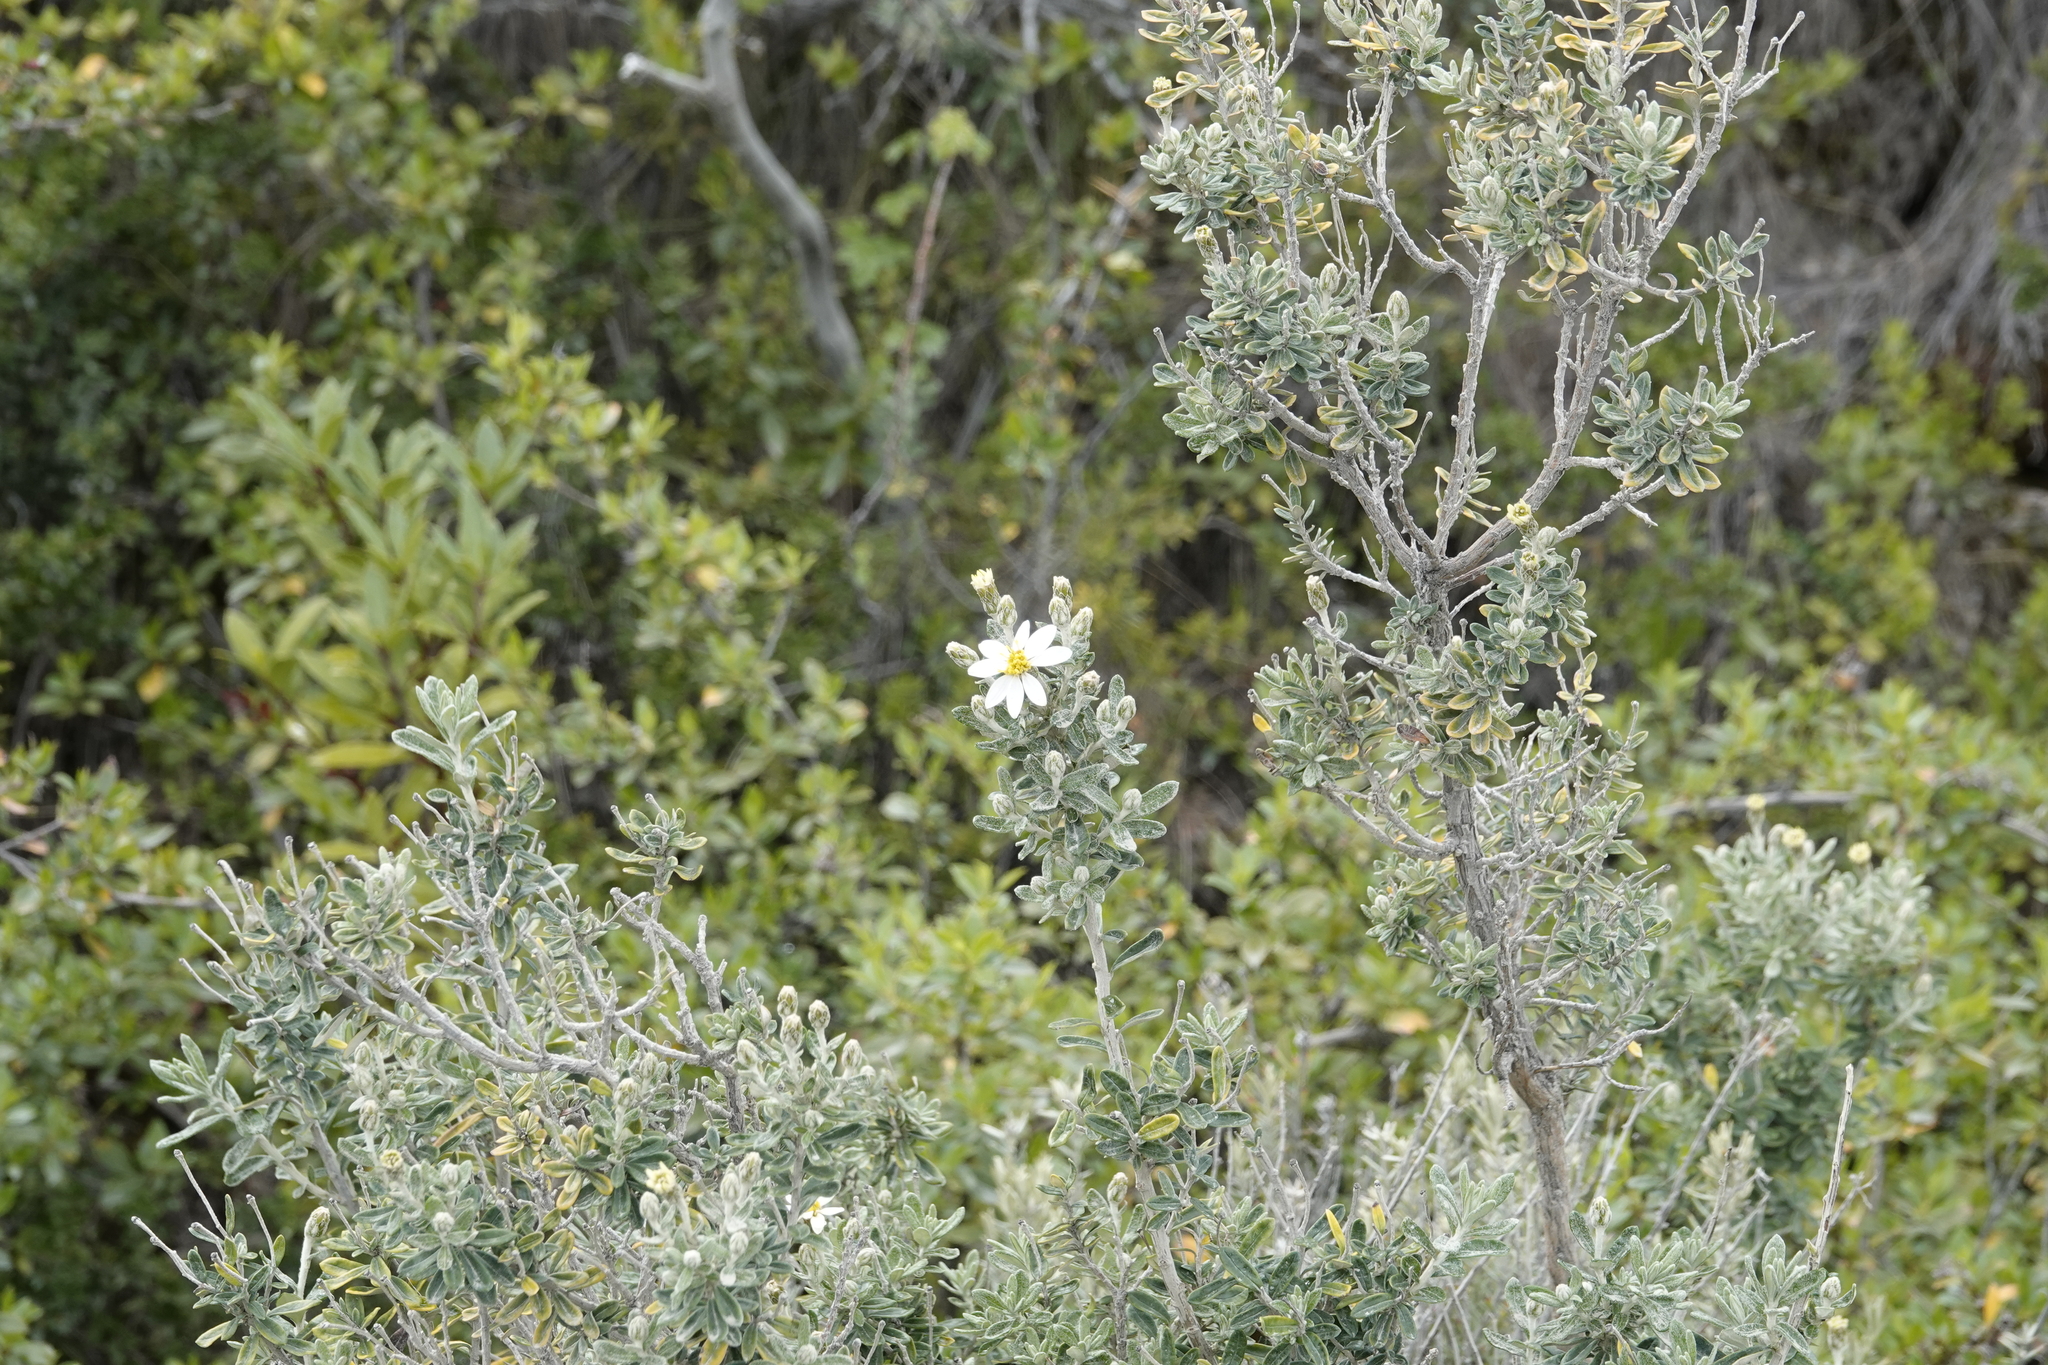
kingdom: Plantae
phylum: Tracheophyta
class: Magnoliopsida
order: Asterales
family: Asteraceae
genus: Chiliotrichum
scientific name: Chiliotrichum diffusum
